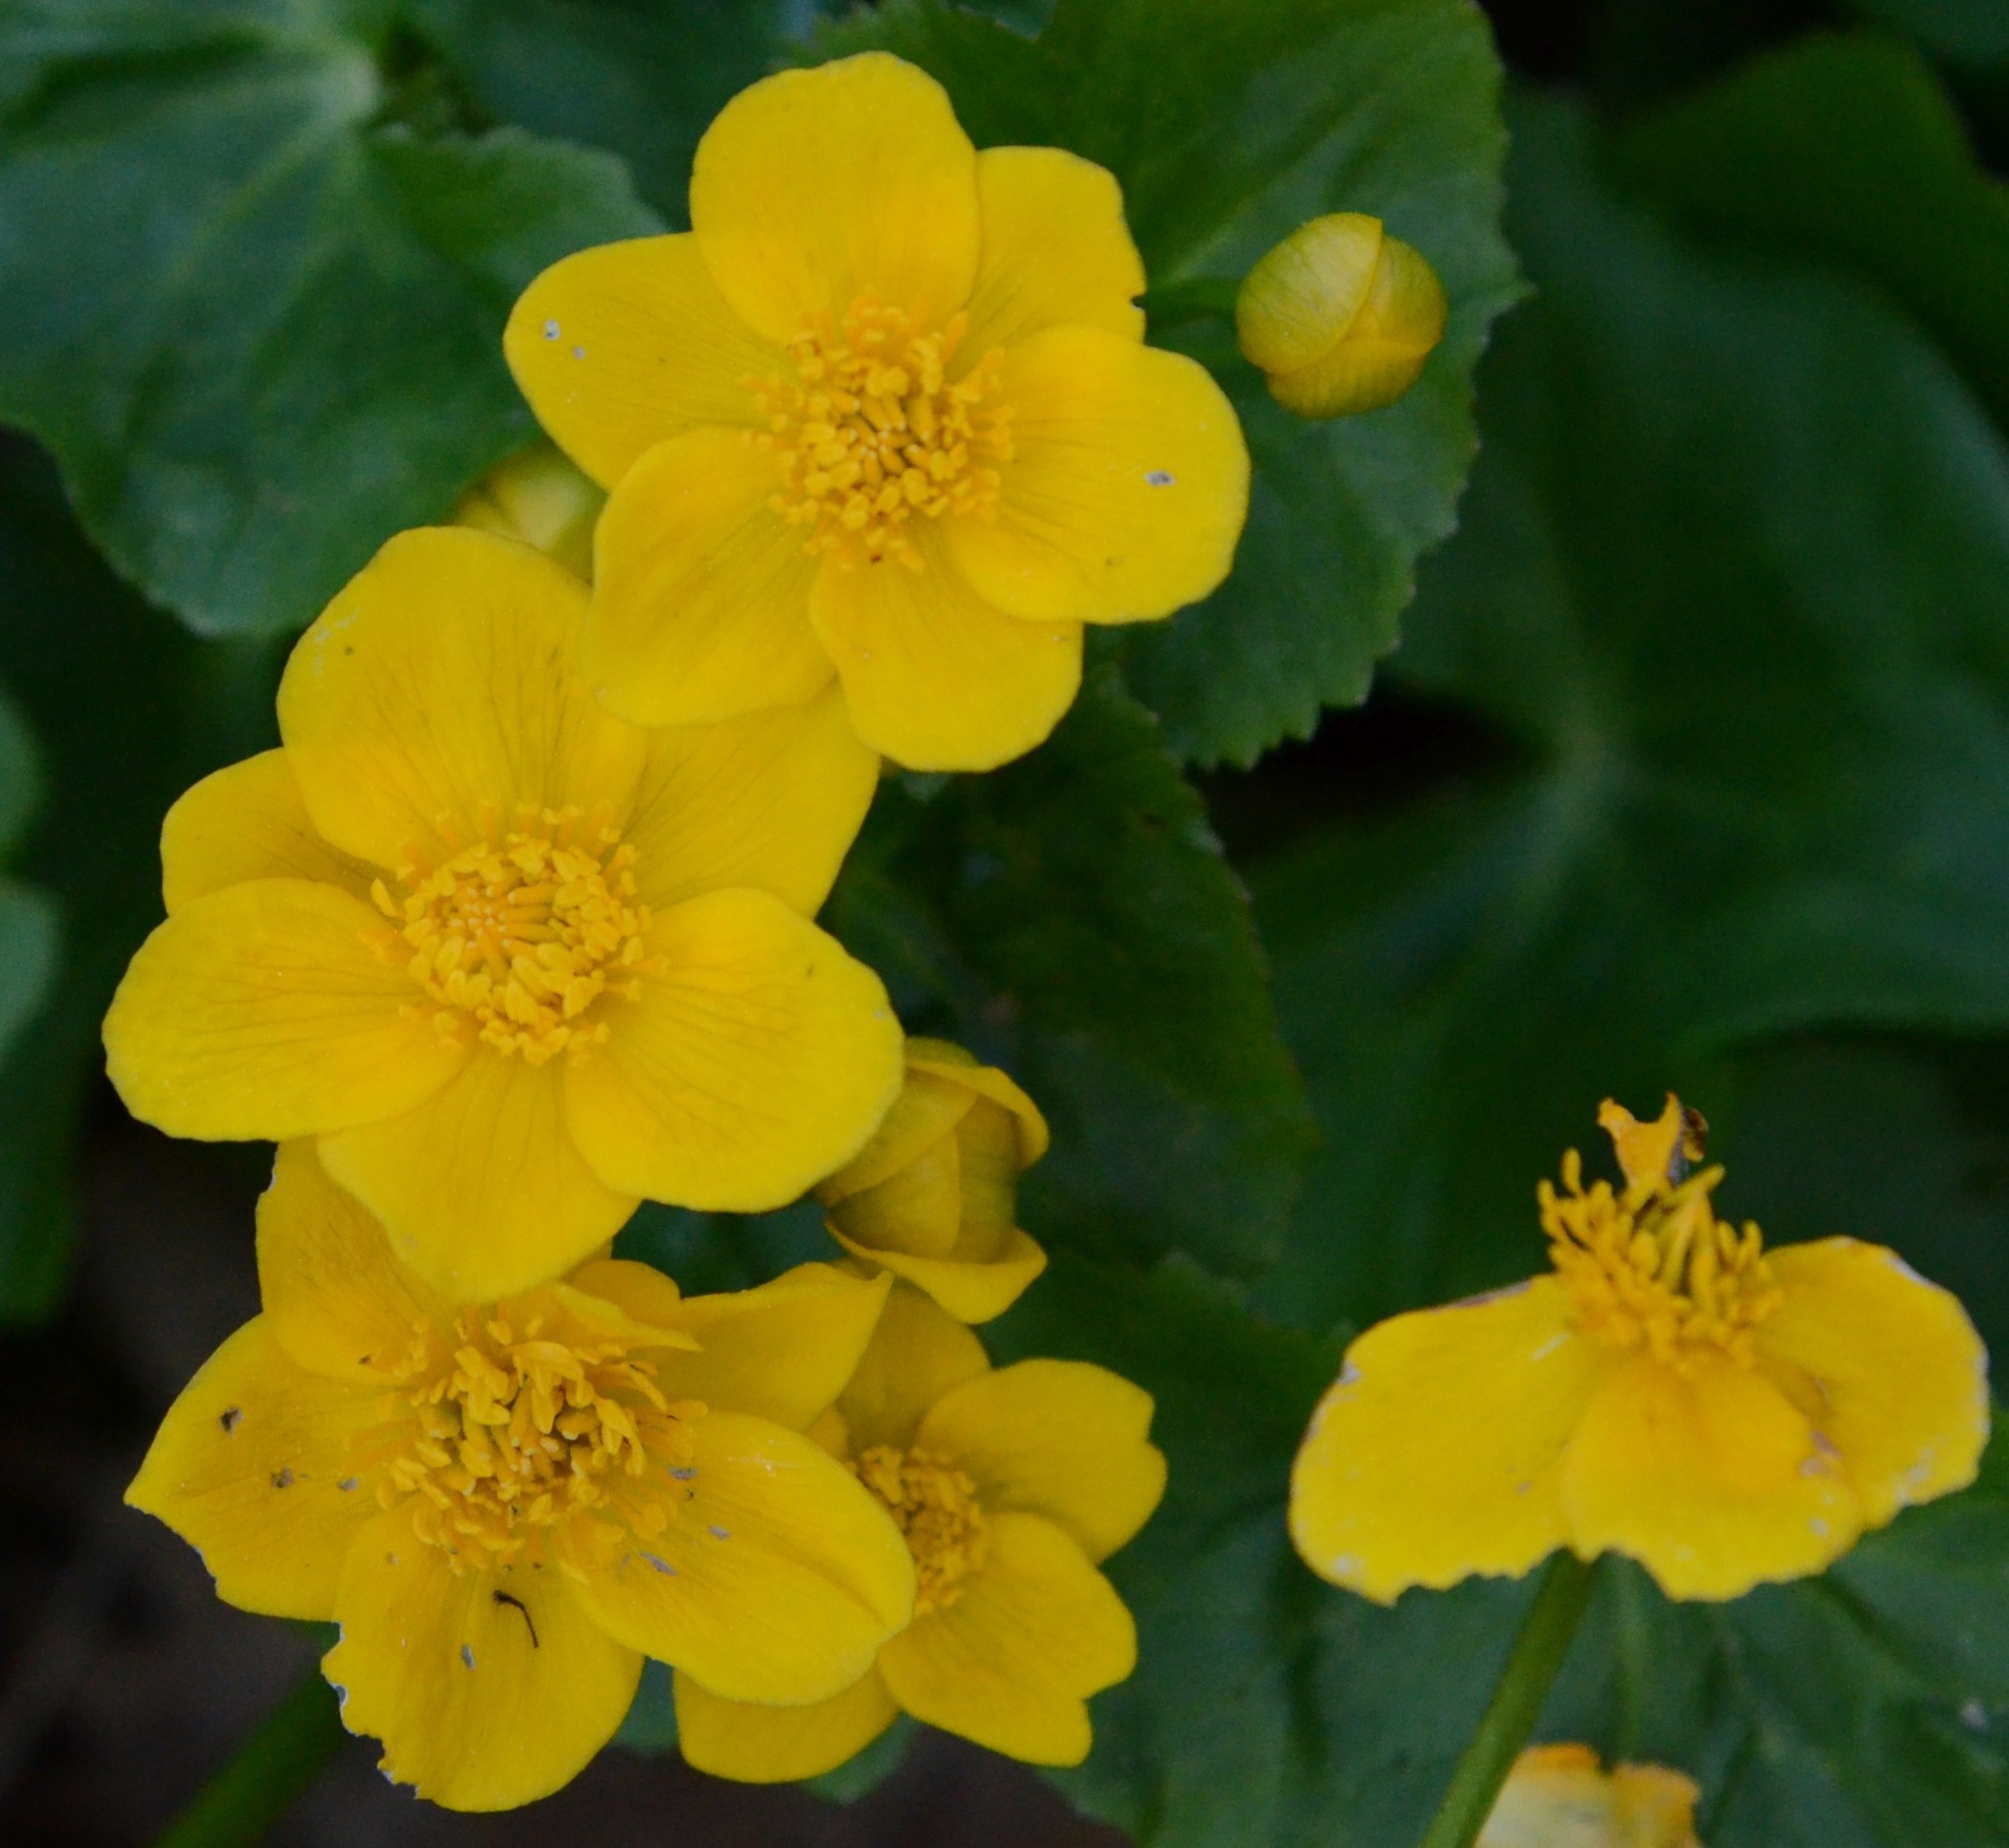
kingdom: Plantae
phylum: Tracheophyta
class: Magnoliopsida
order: Ranunculales
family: Ranunculaceae
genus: Caltha
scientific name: Caltha palustris
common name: Marsh marigold
